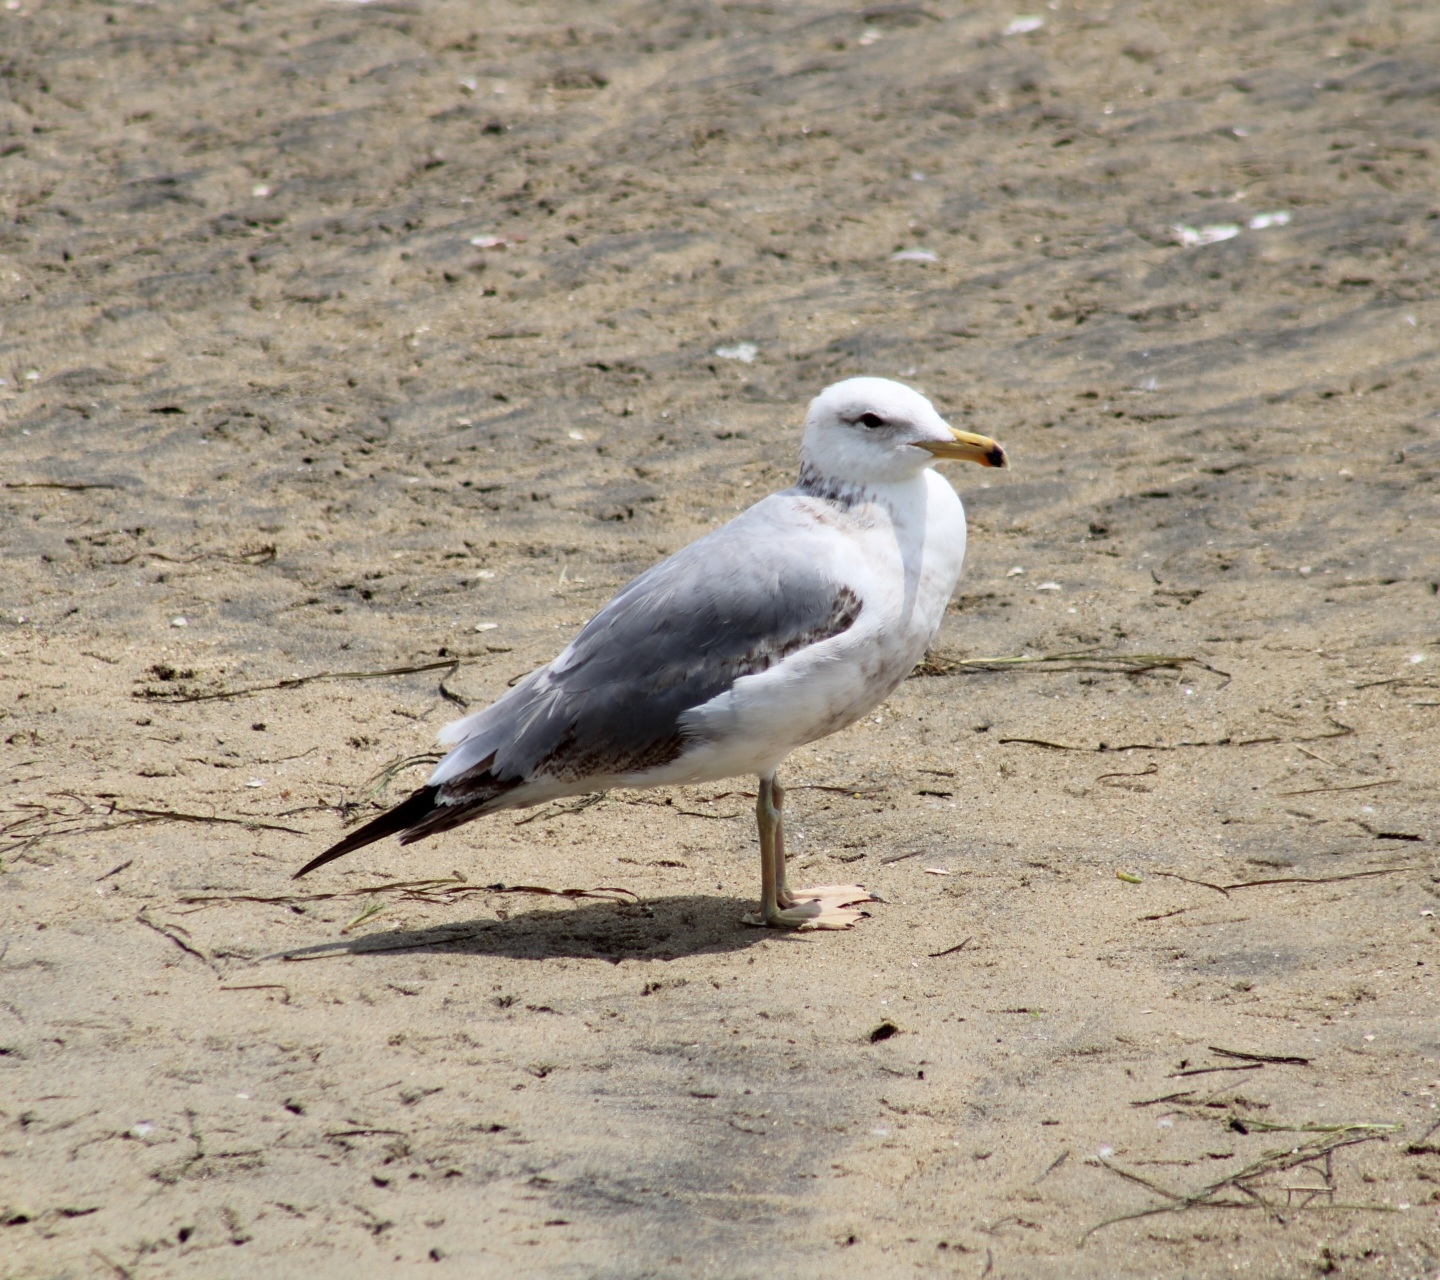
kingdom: Animalia
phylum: Chordata
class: Aves
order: Charadriiformes
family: Laridae
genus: Larus
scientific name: Larus californicus
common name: California gull
